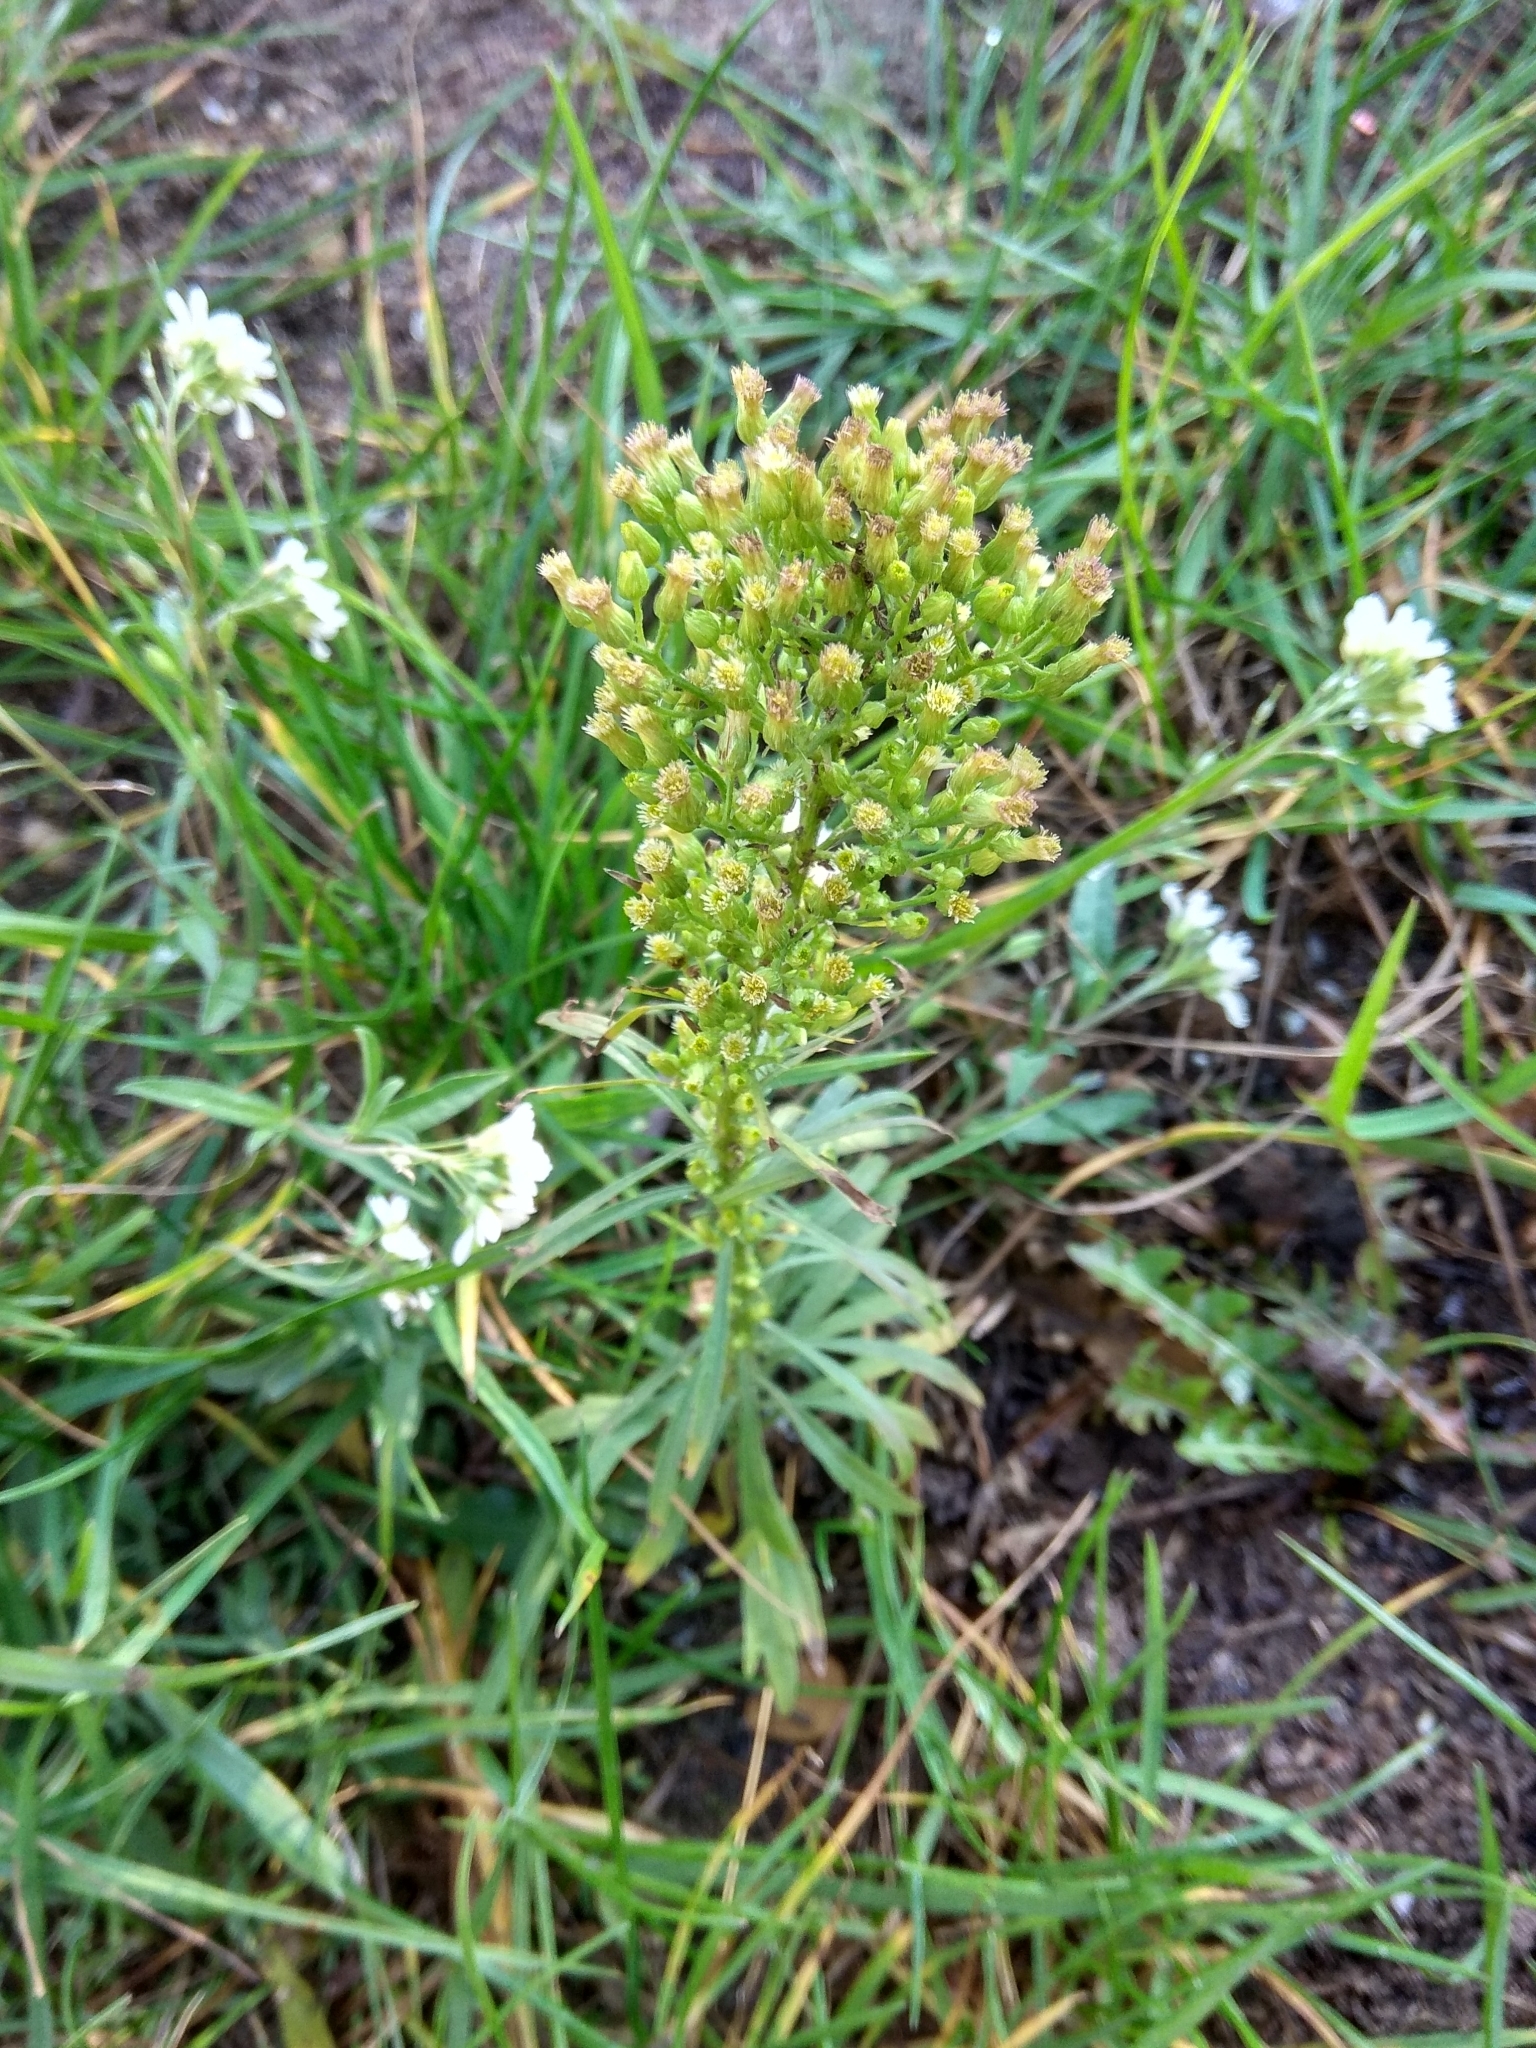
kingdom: Plantae
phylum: Tracheophyta
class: Magnoliopsida
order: Asterales
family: Asteraceae
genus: Erigeron
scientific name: Erigeron canadensis
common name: Canadian fleabane
